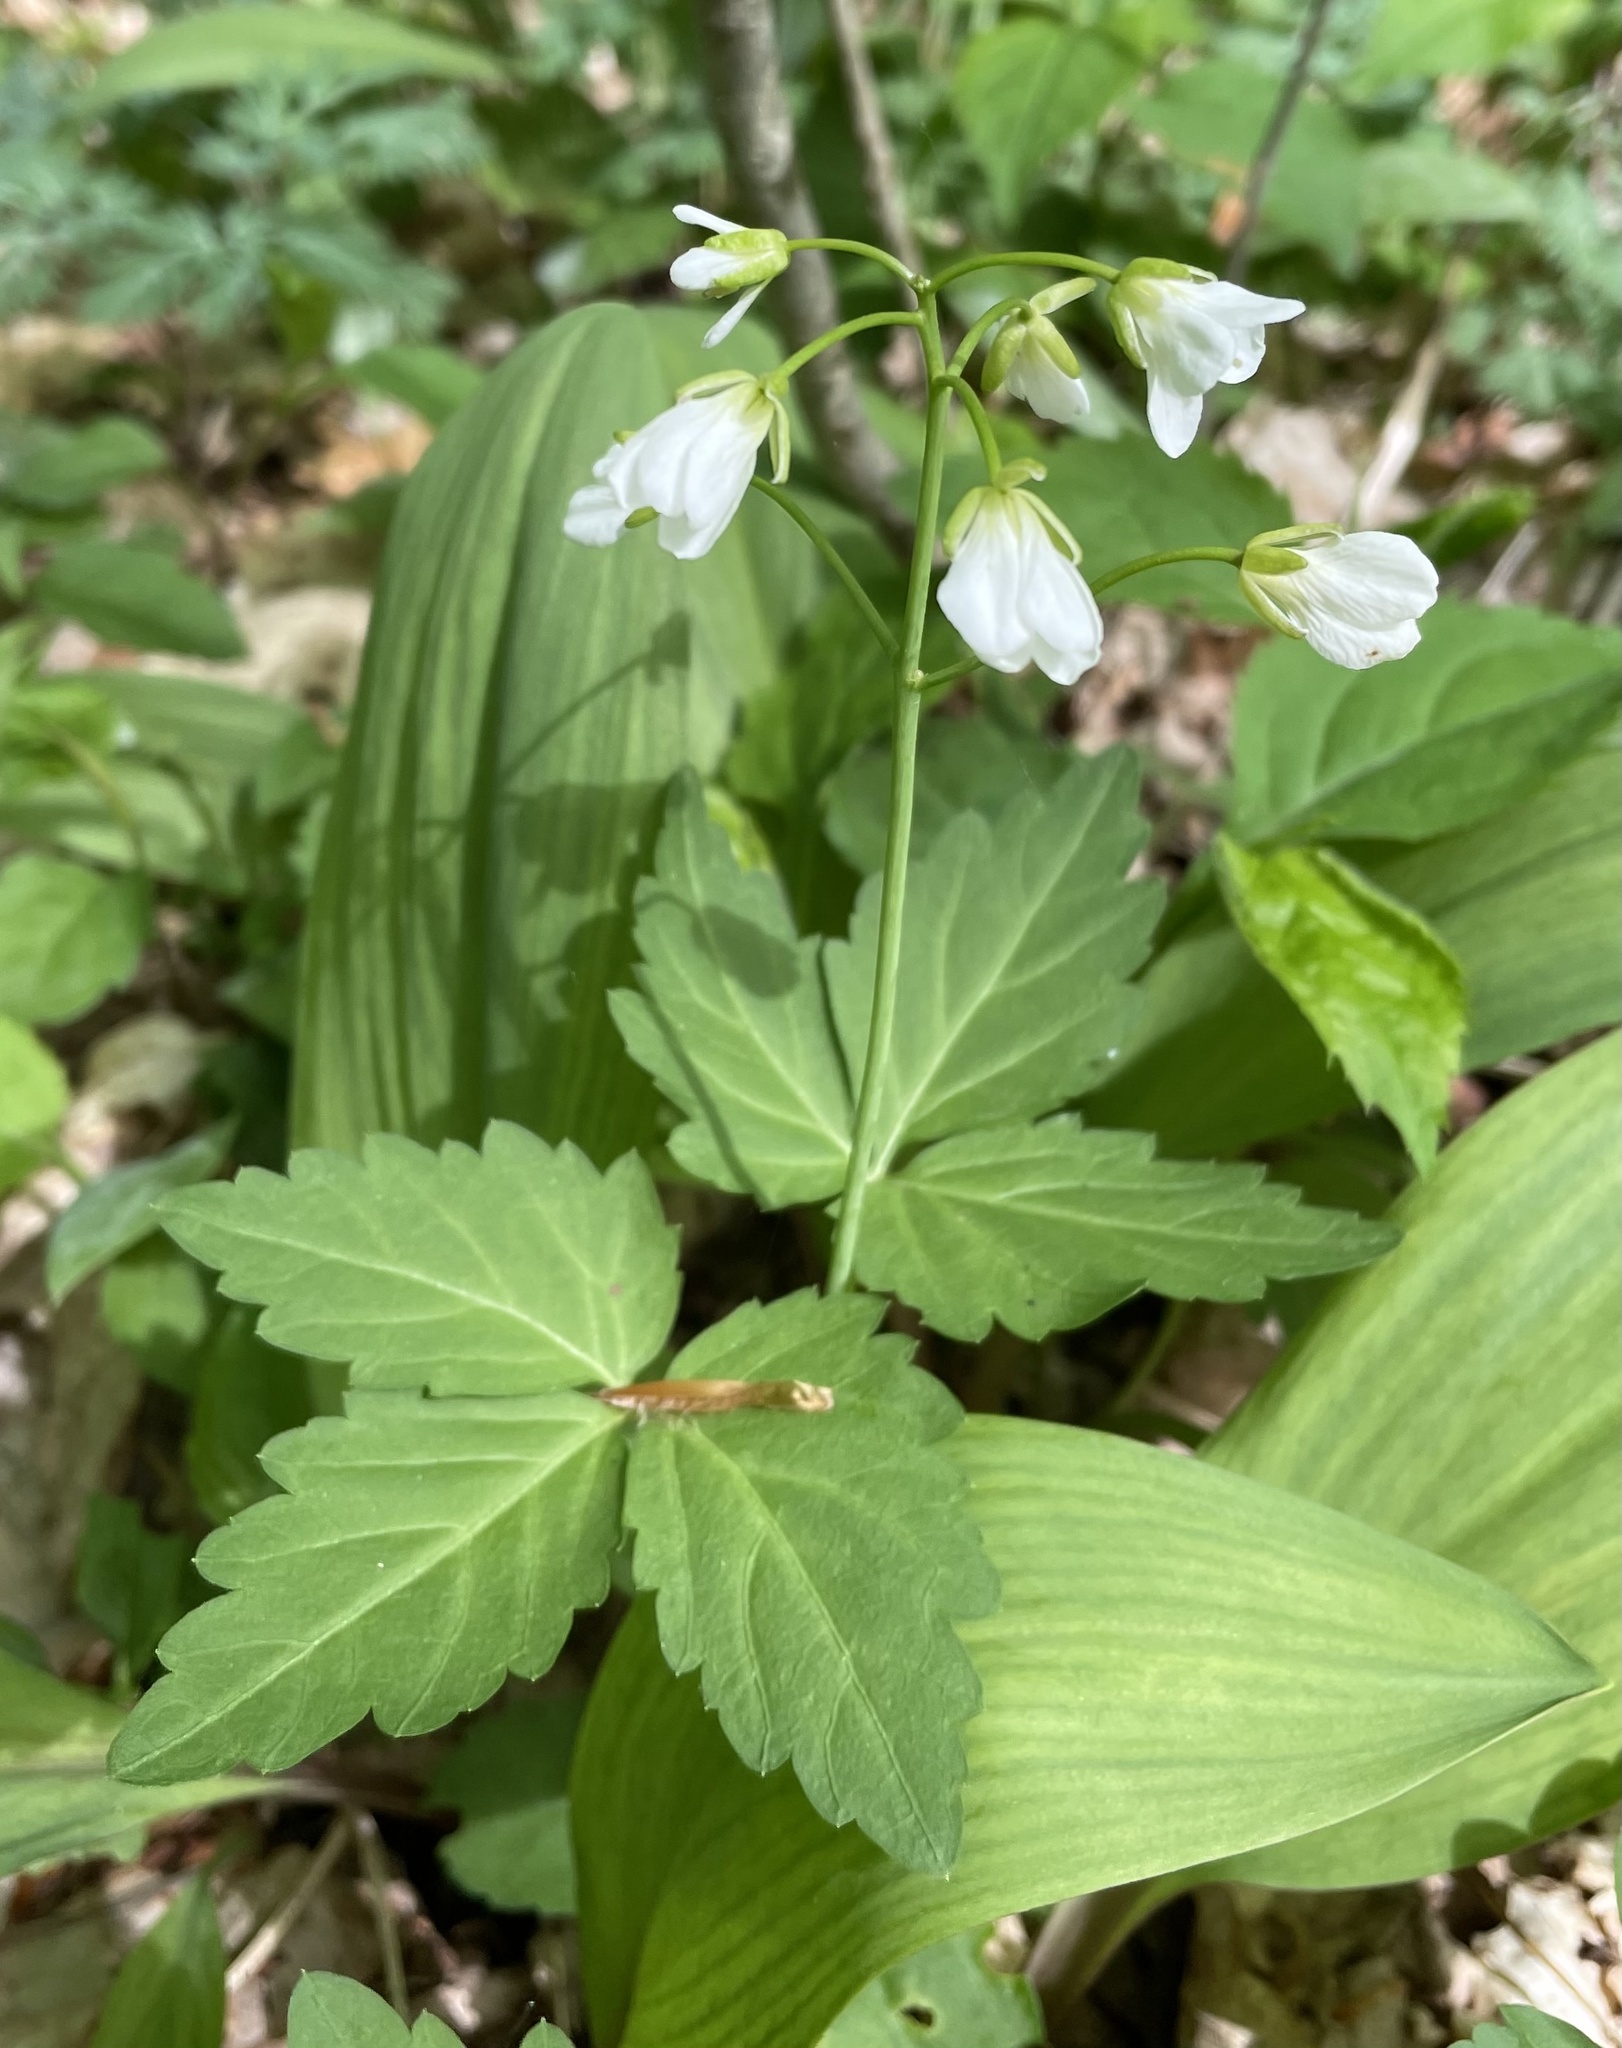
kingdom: Plantae
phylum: Tracheophyta
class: Magnoliopsida
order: Brassicales
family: Brassicaceae
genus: Cardamine
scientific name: Cardamine diphylla
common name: Broad-leaved toothwort
